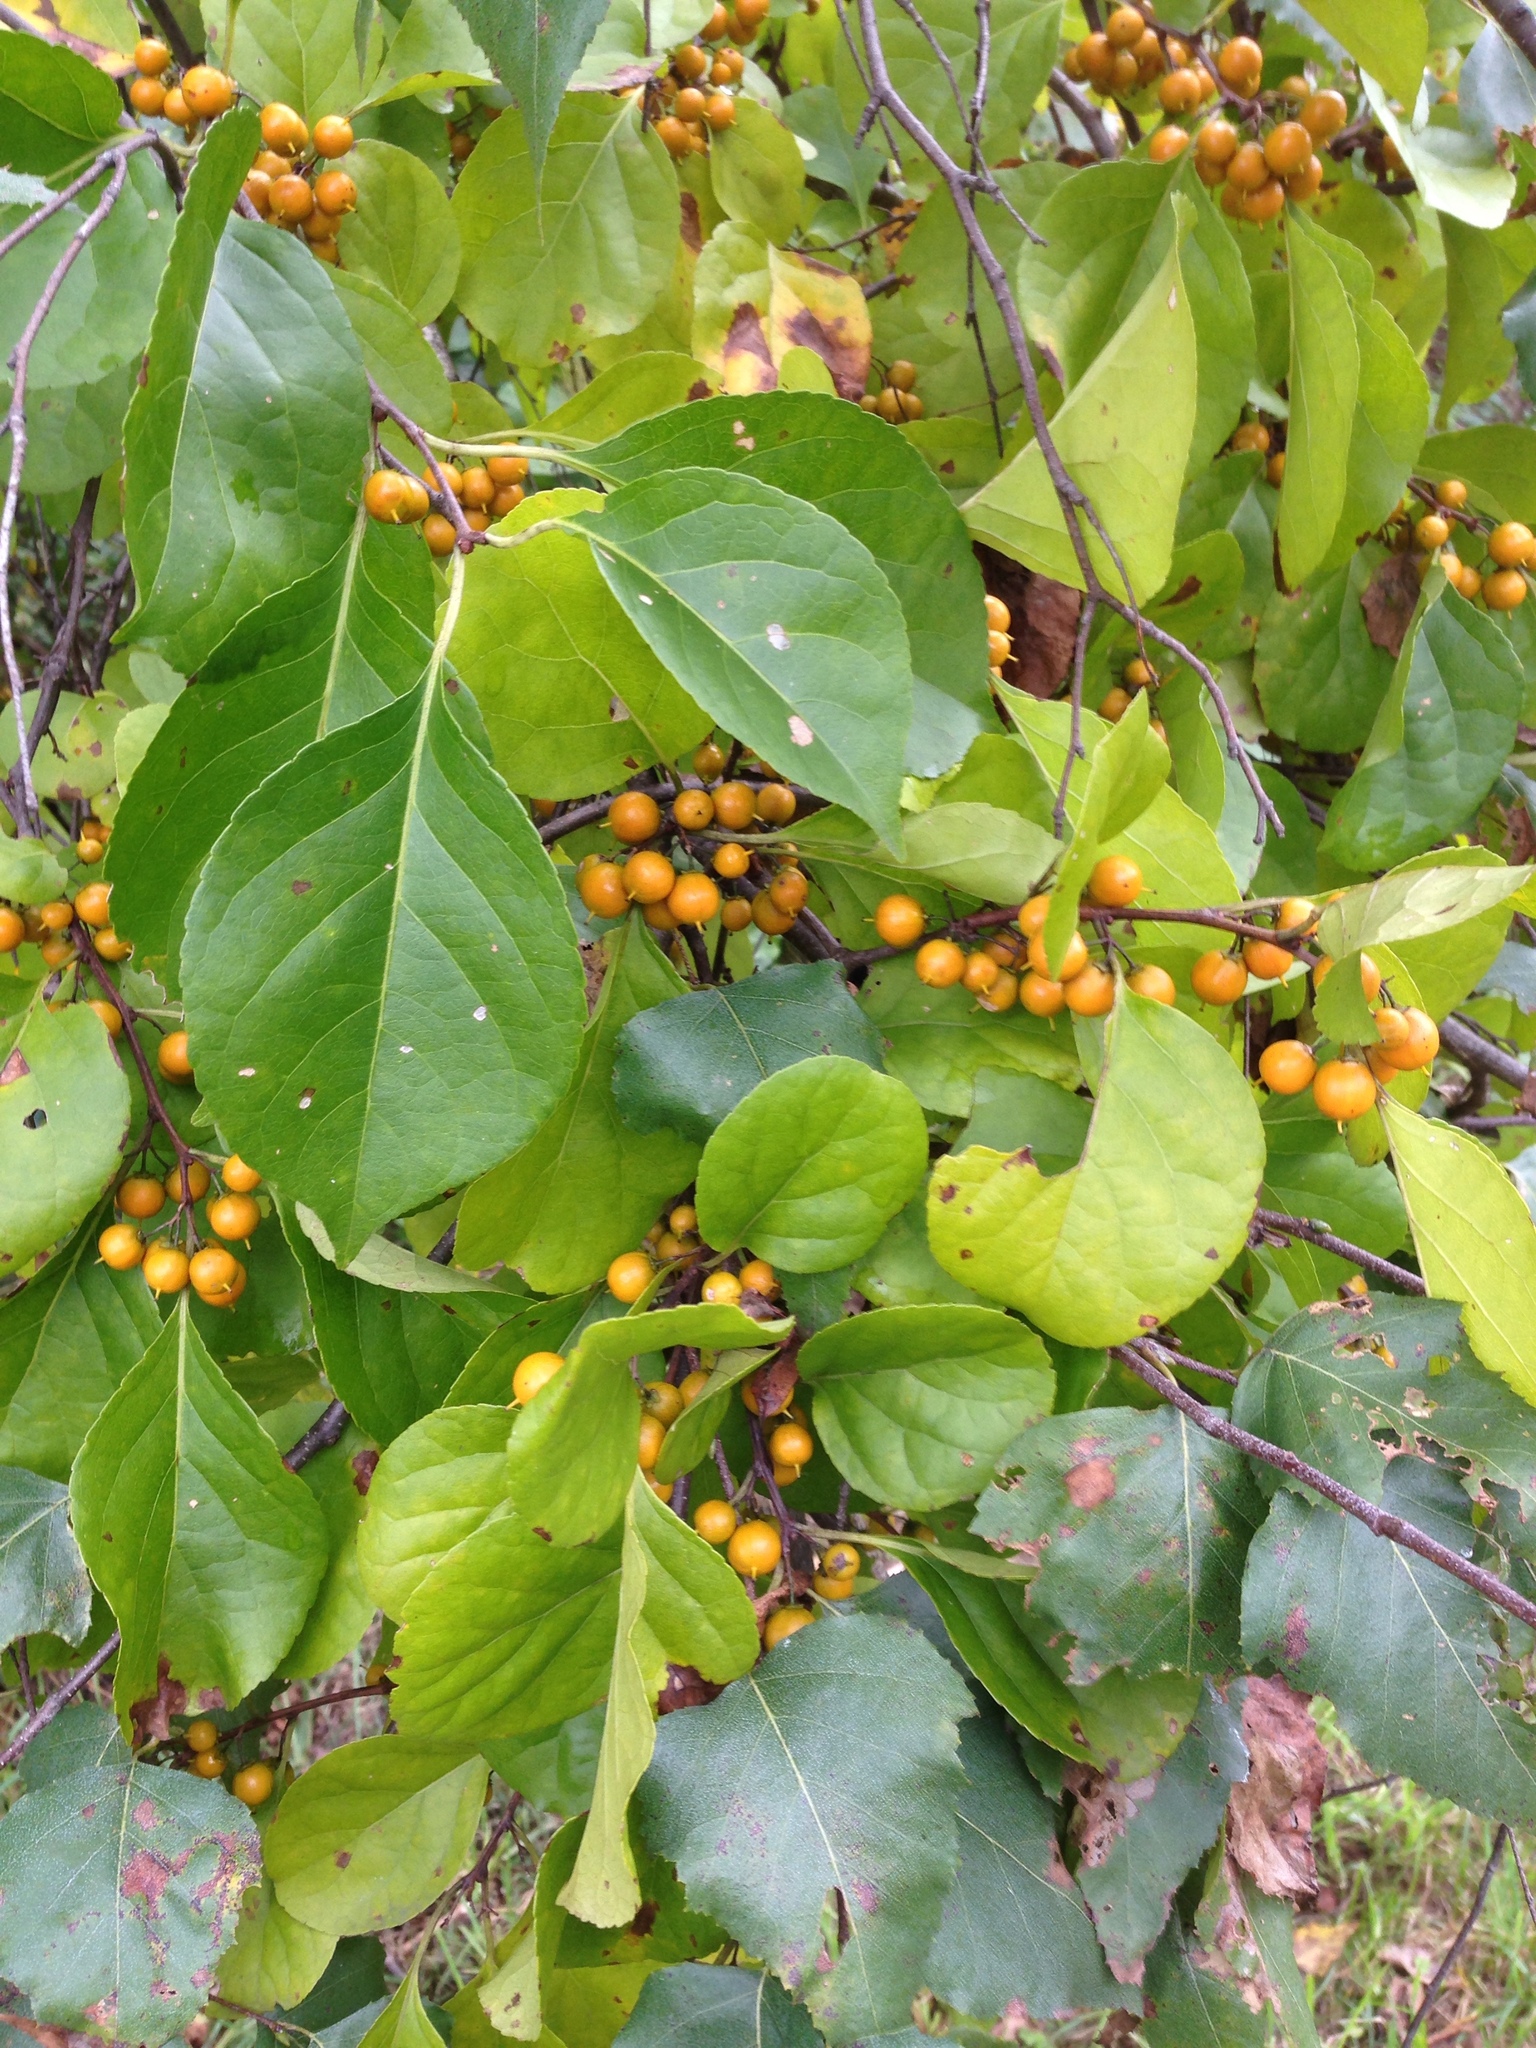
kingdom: Plantae
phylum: Tracheophyta
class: Magnoliopsida
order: Celastrales
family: Celastraceae
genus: Celastrus
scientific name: Celastrus orbiculatus
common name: Oriental bittersweet
